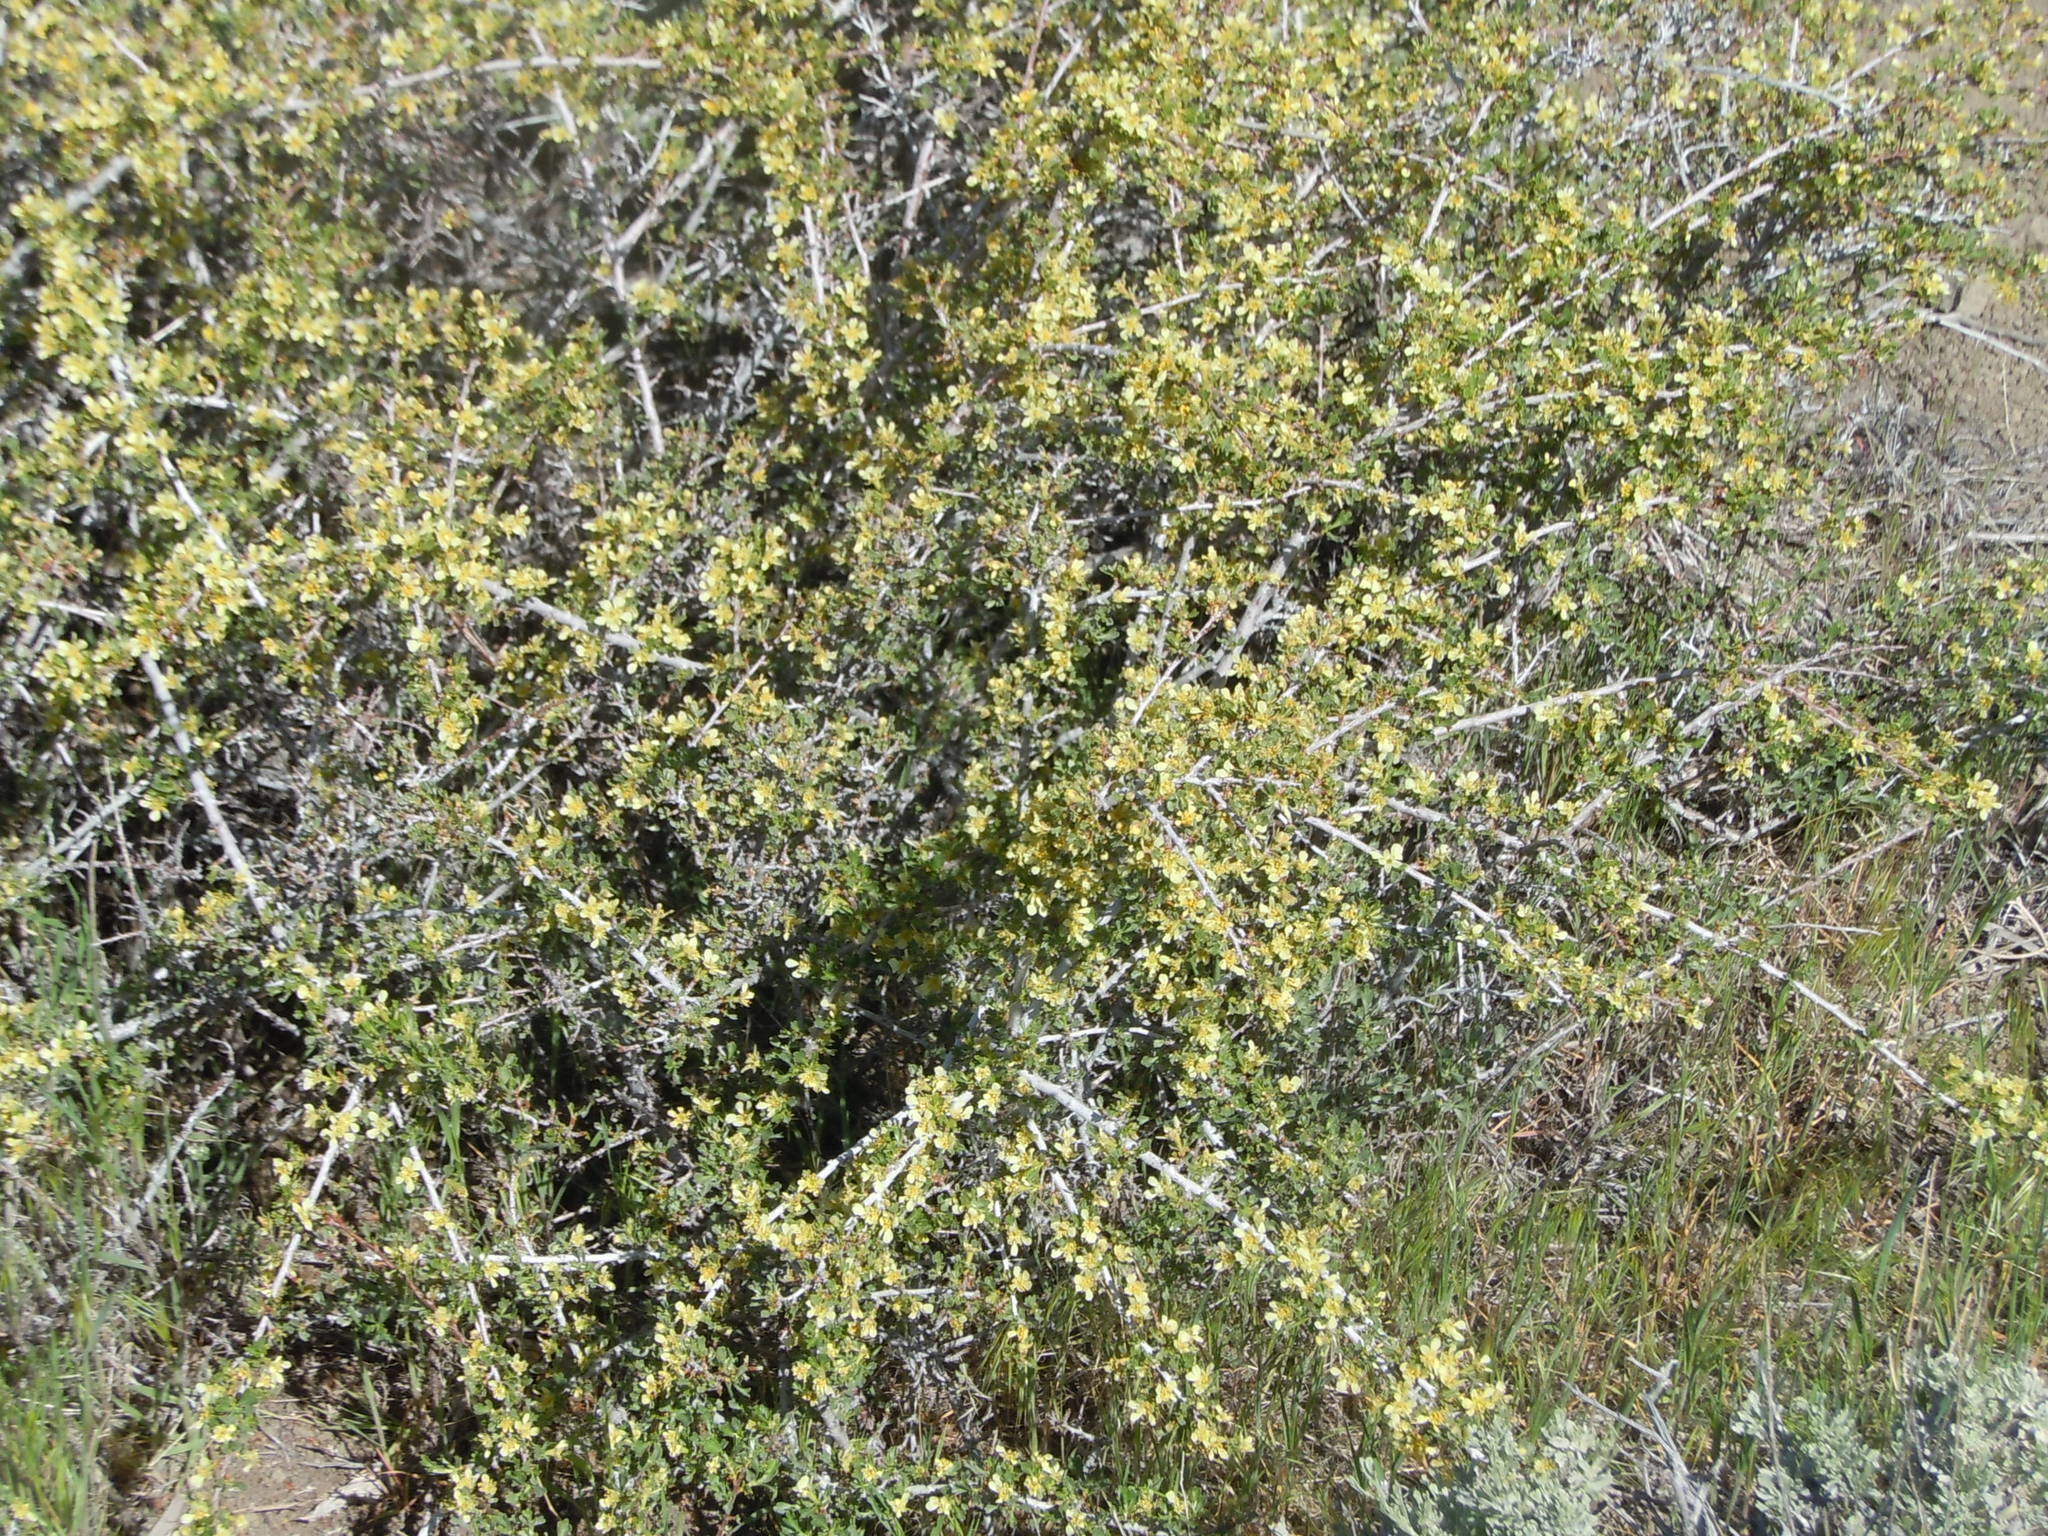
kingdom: Plantae
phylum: Tracheophyta
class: Magnoliopsida
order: Rosales
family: Rosaceae
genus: Purshia
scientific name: Purshia tridentata
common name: Antelope bitterbrush
